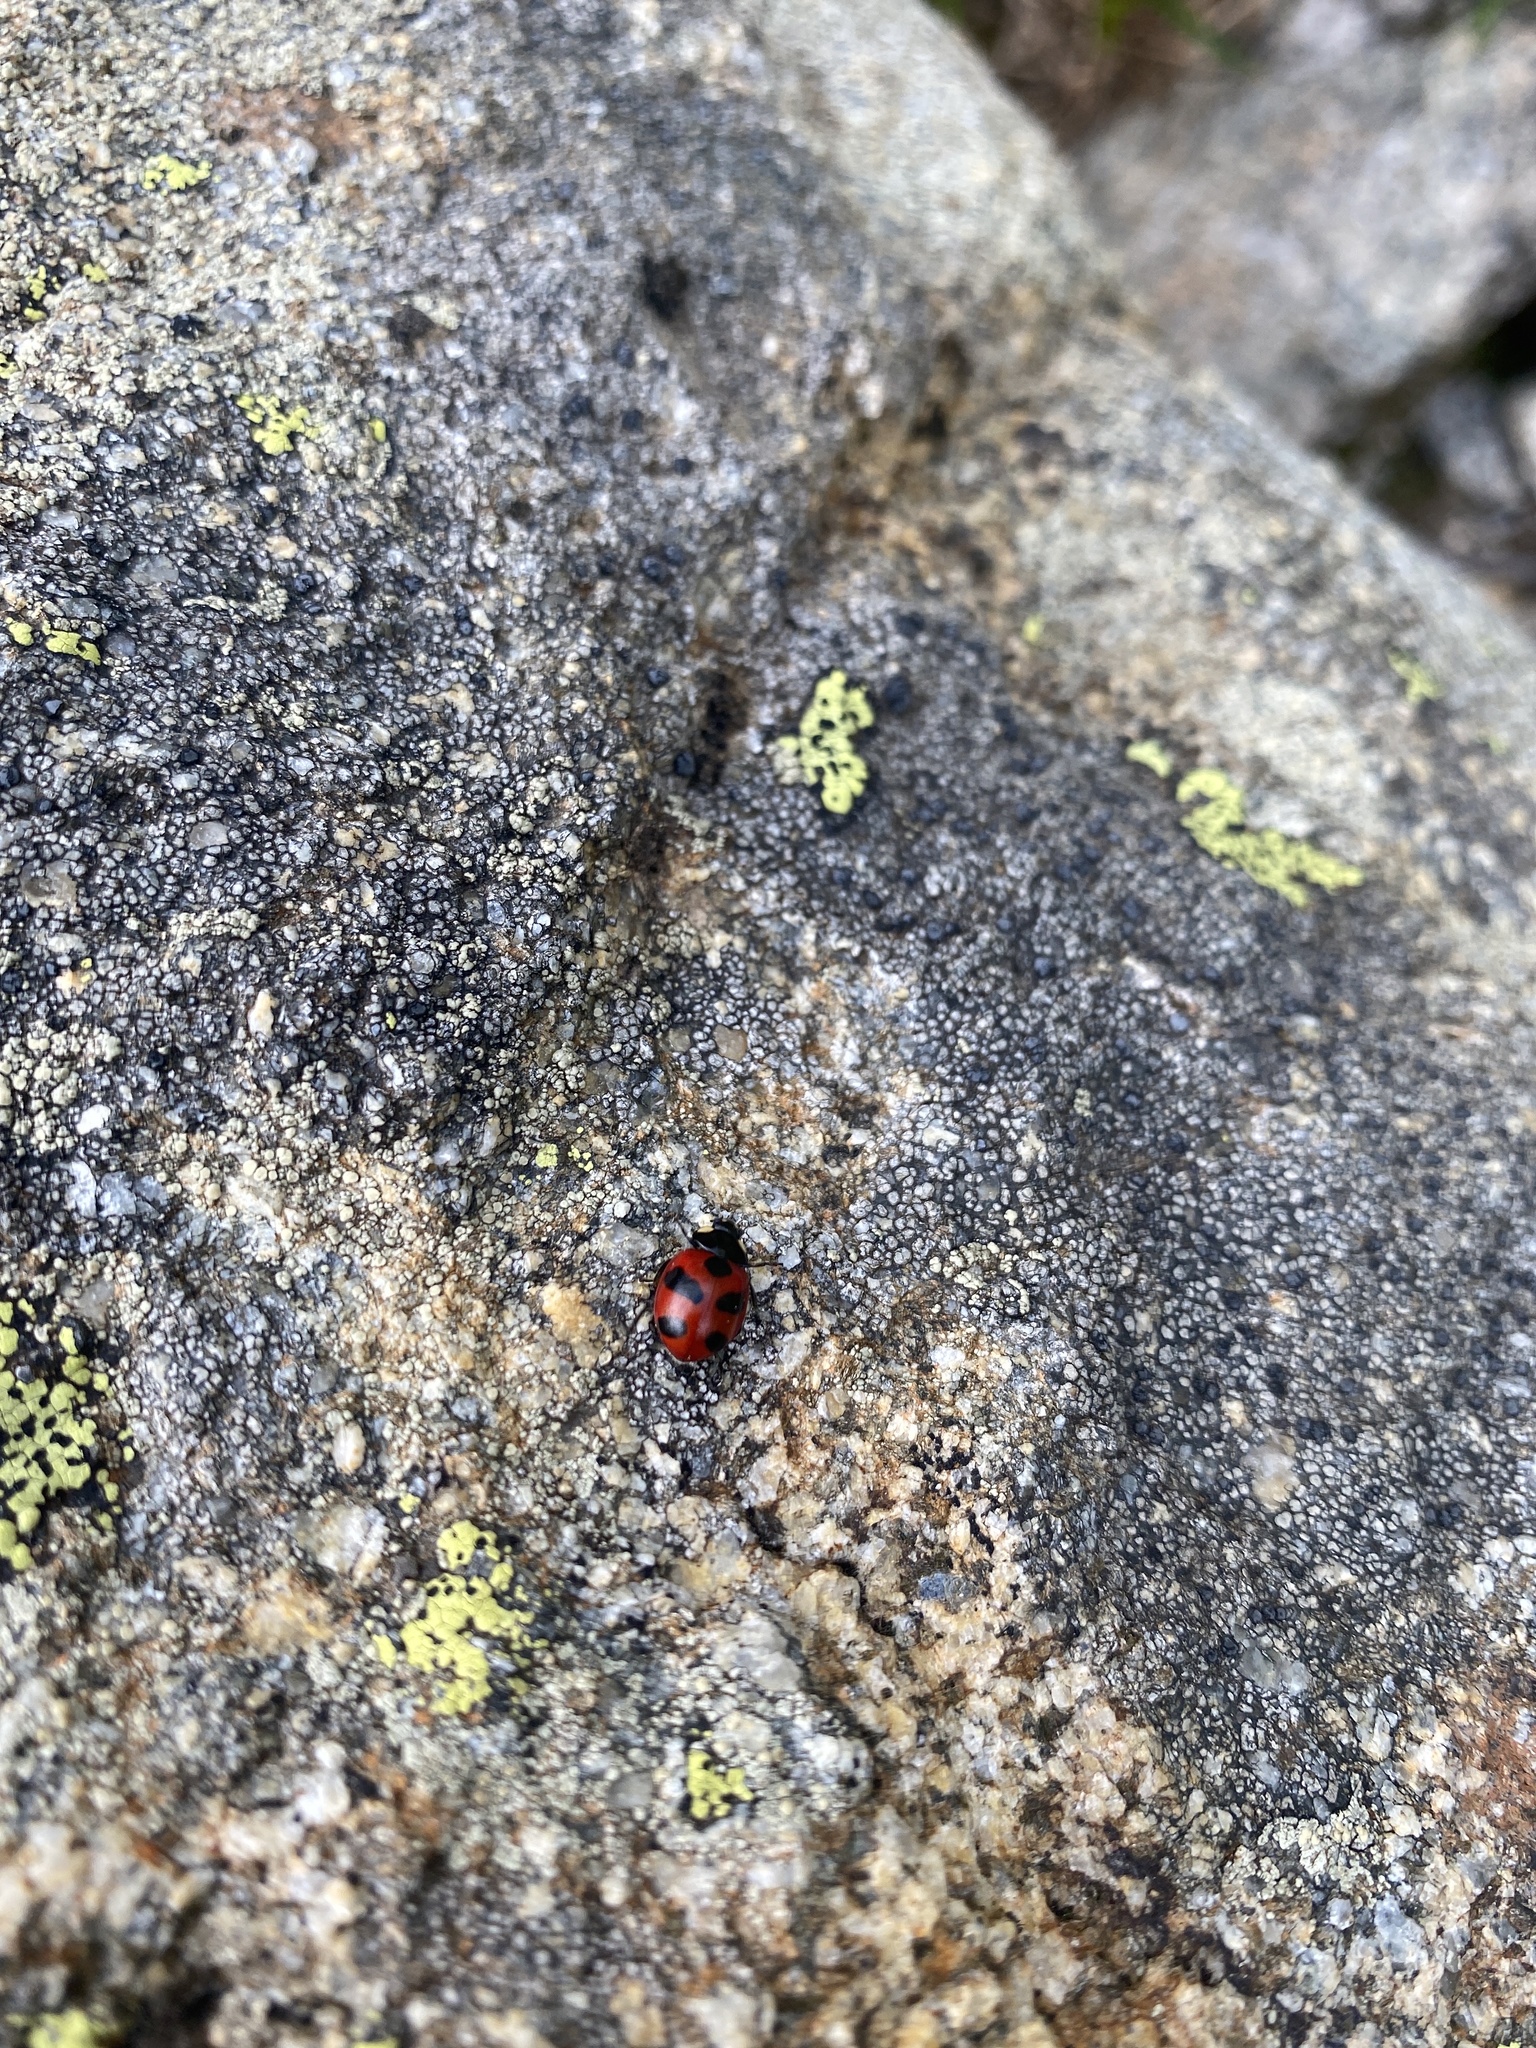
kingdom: Animalia
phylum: Arthropoda
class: Insecta
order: Coleoptera
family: Coccinellidae
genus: Coccinella
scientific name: Coccinella monticola
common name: Mountain lady beetle
